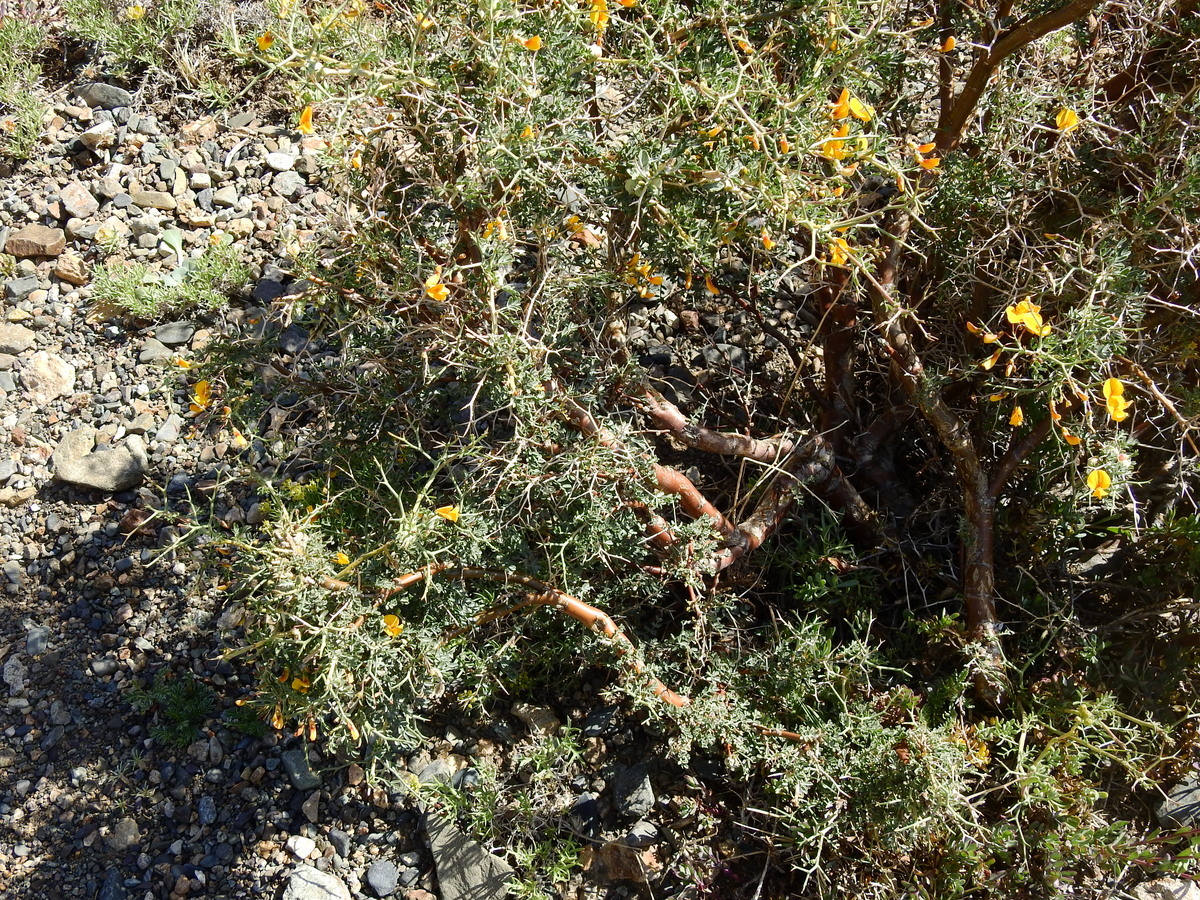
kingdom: Plantae
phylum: Tracheophyta
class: Magnoliopsida
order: Fabales
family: Fabaceae
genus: Adesmia
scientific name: Adesmia obovata
